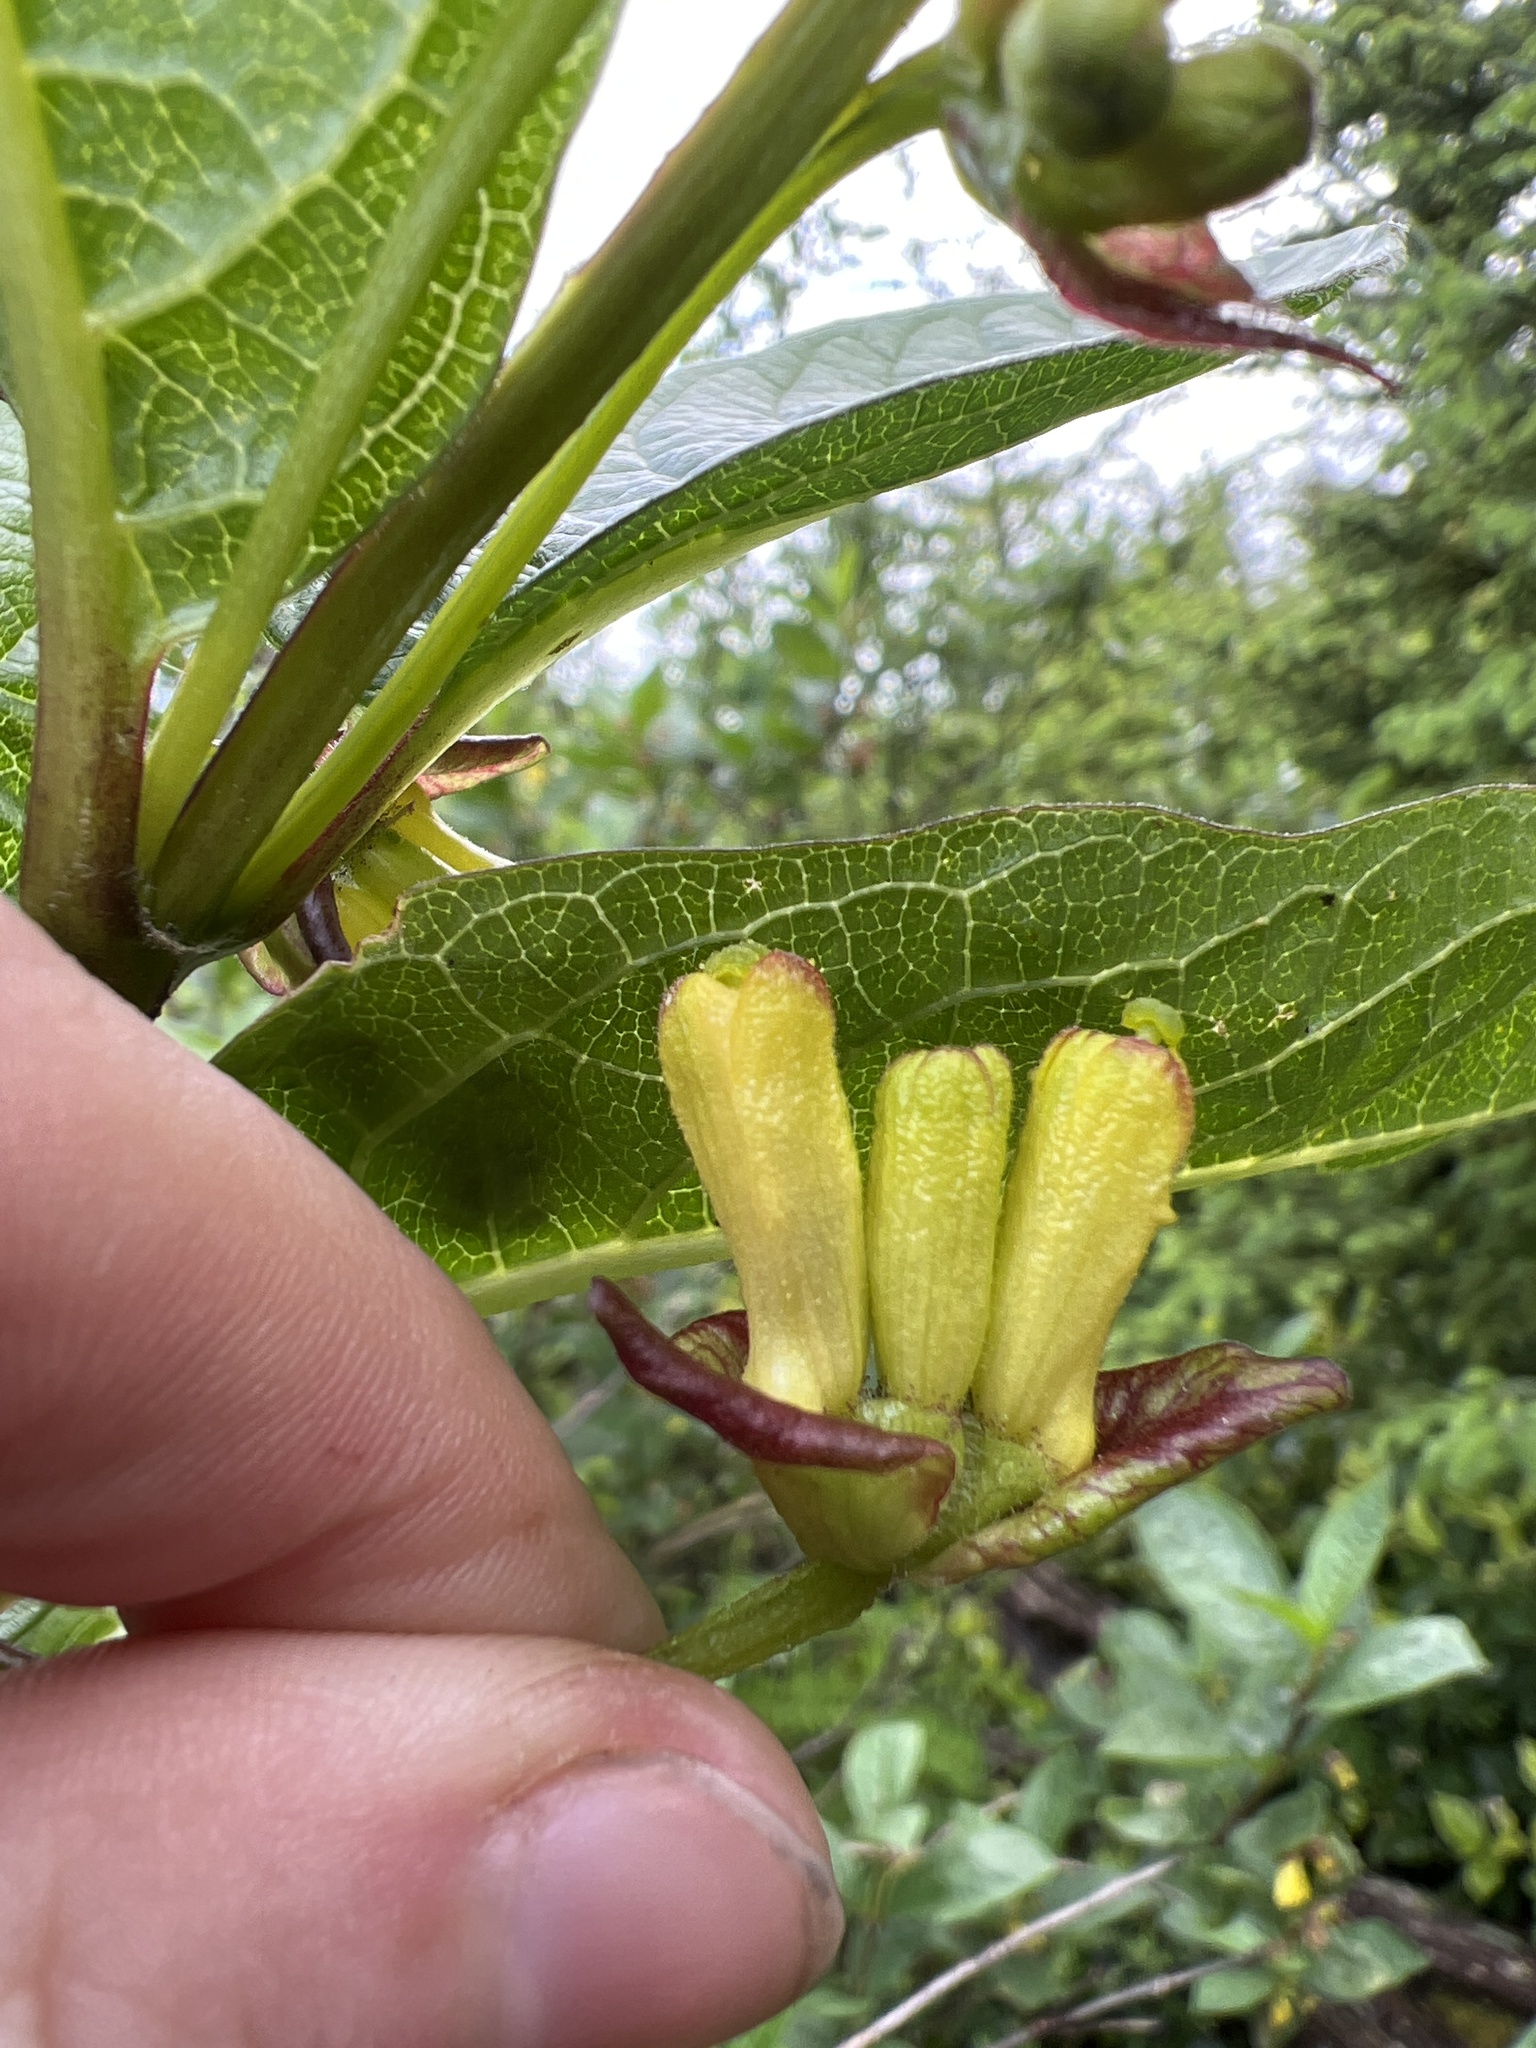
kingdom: Plantae
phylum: Tracheophyta
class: Magnoliopsida
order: Dipsacales
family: Caprifoliaceae
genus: Lonicera
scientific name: Lonicera involucrata
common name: Californian honeysuckle
